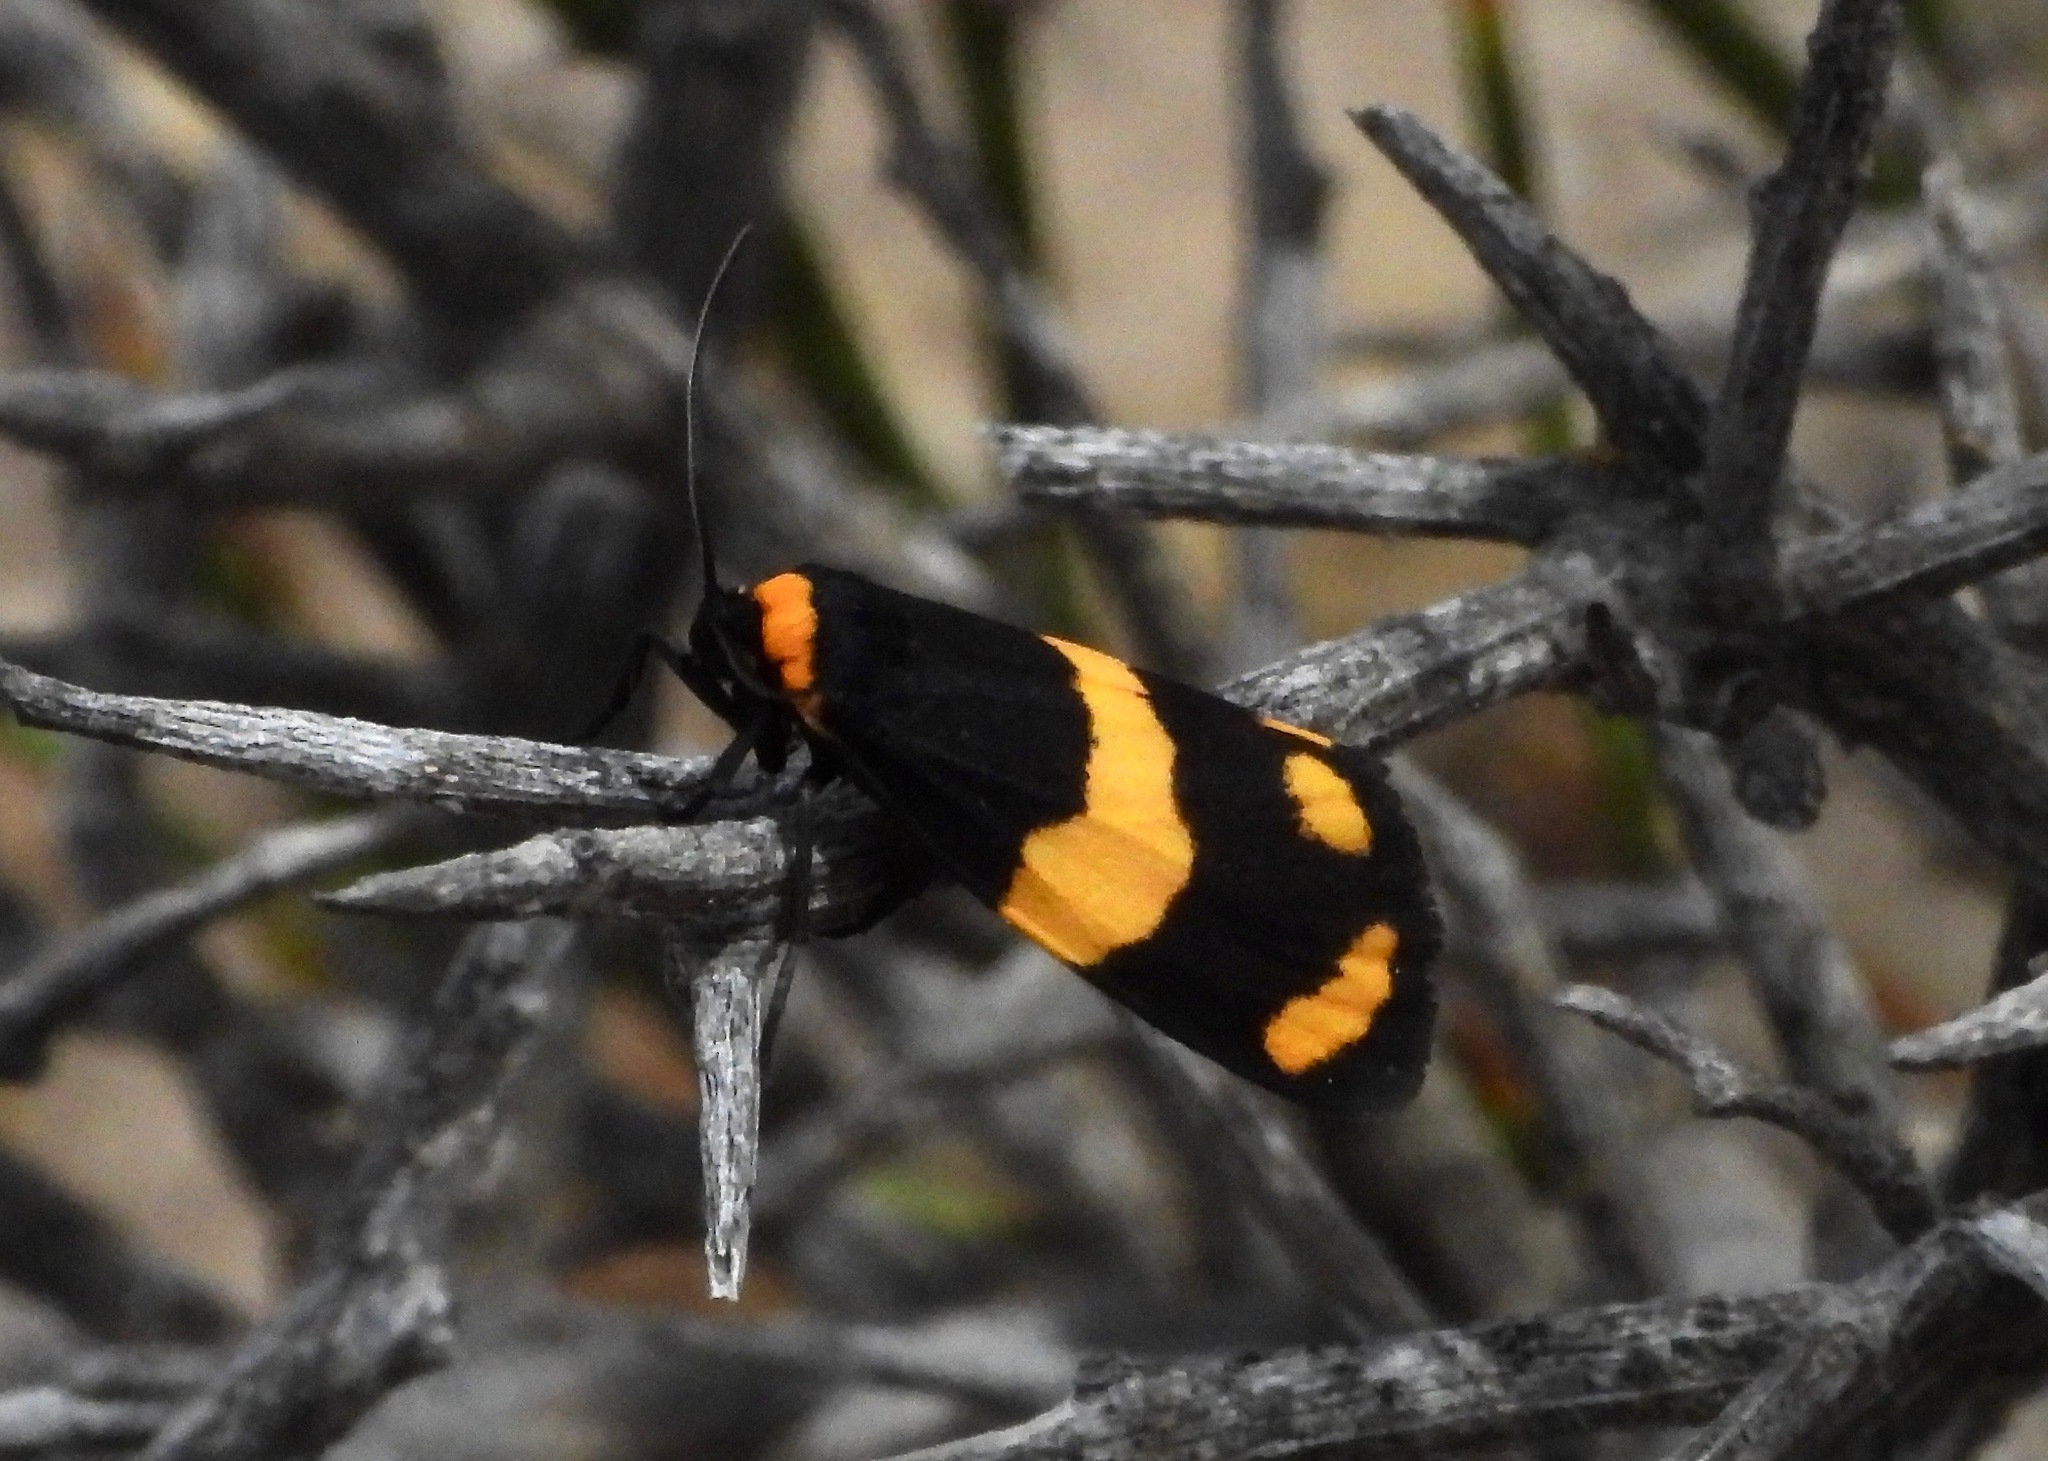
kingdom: Animalia
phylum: Arthropoda
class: Insecta
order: Lepidoptera
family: Erebidae
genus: Eudesmia
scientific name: Eudesmia
